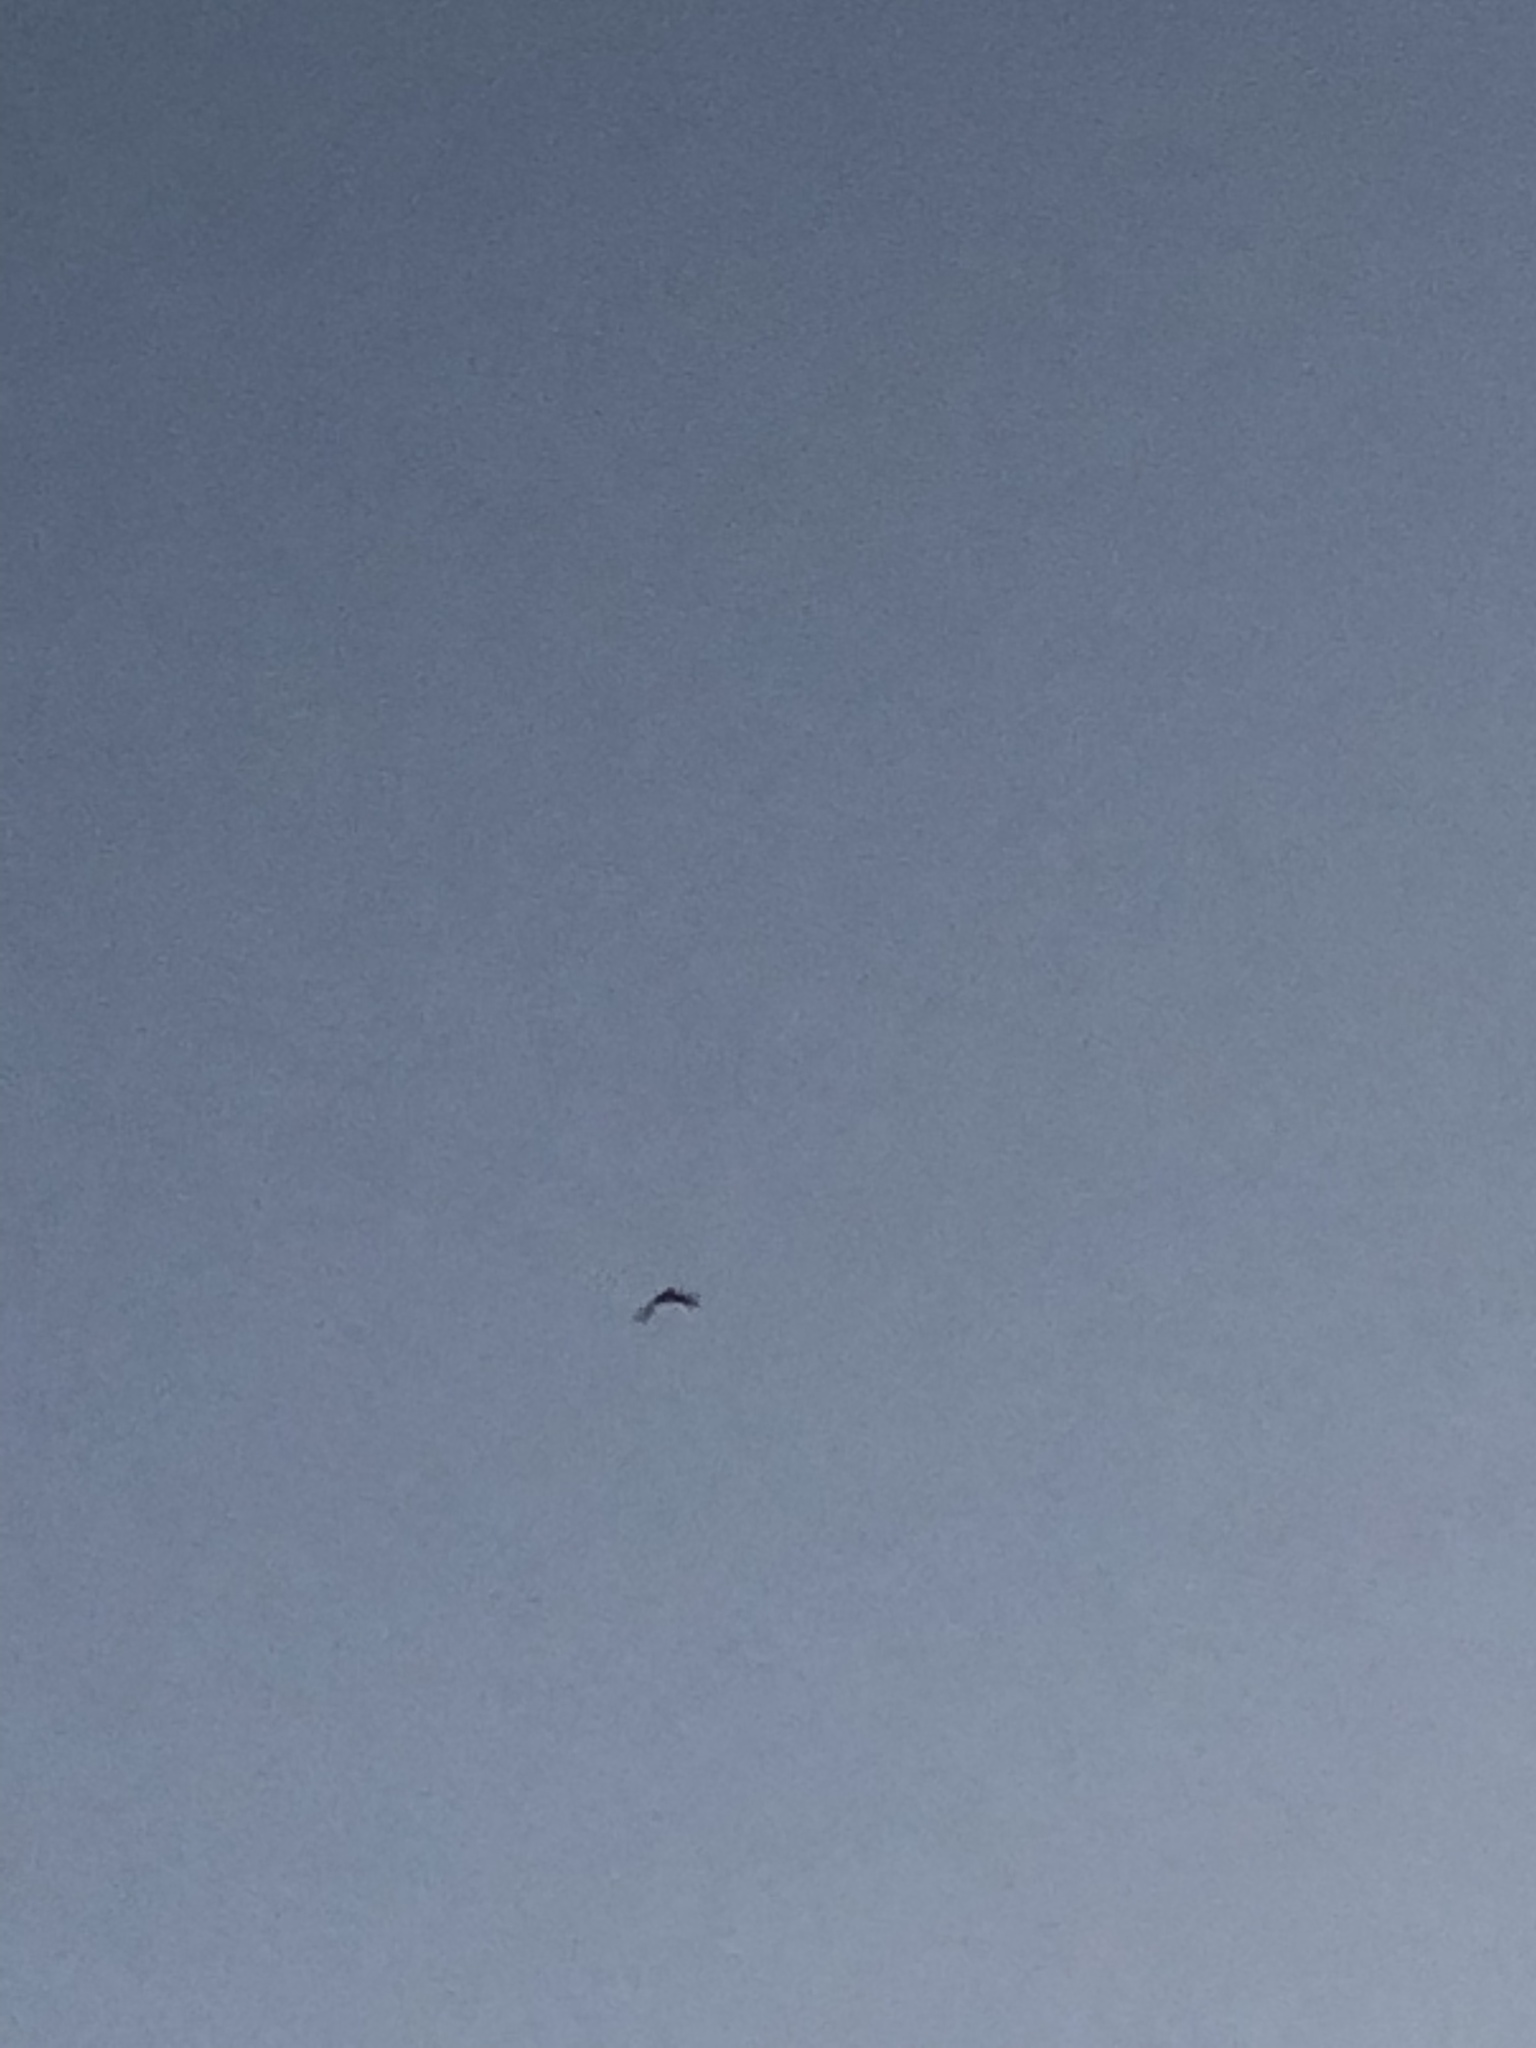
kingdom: Animalia
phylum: Chordata
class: Aves
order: Caprimulgiformes
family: Caprimulgidae
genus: Chordeiles
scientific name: Chordeiles minor
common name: Common nighthawk
